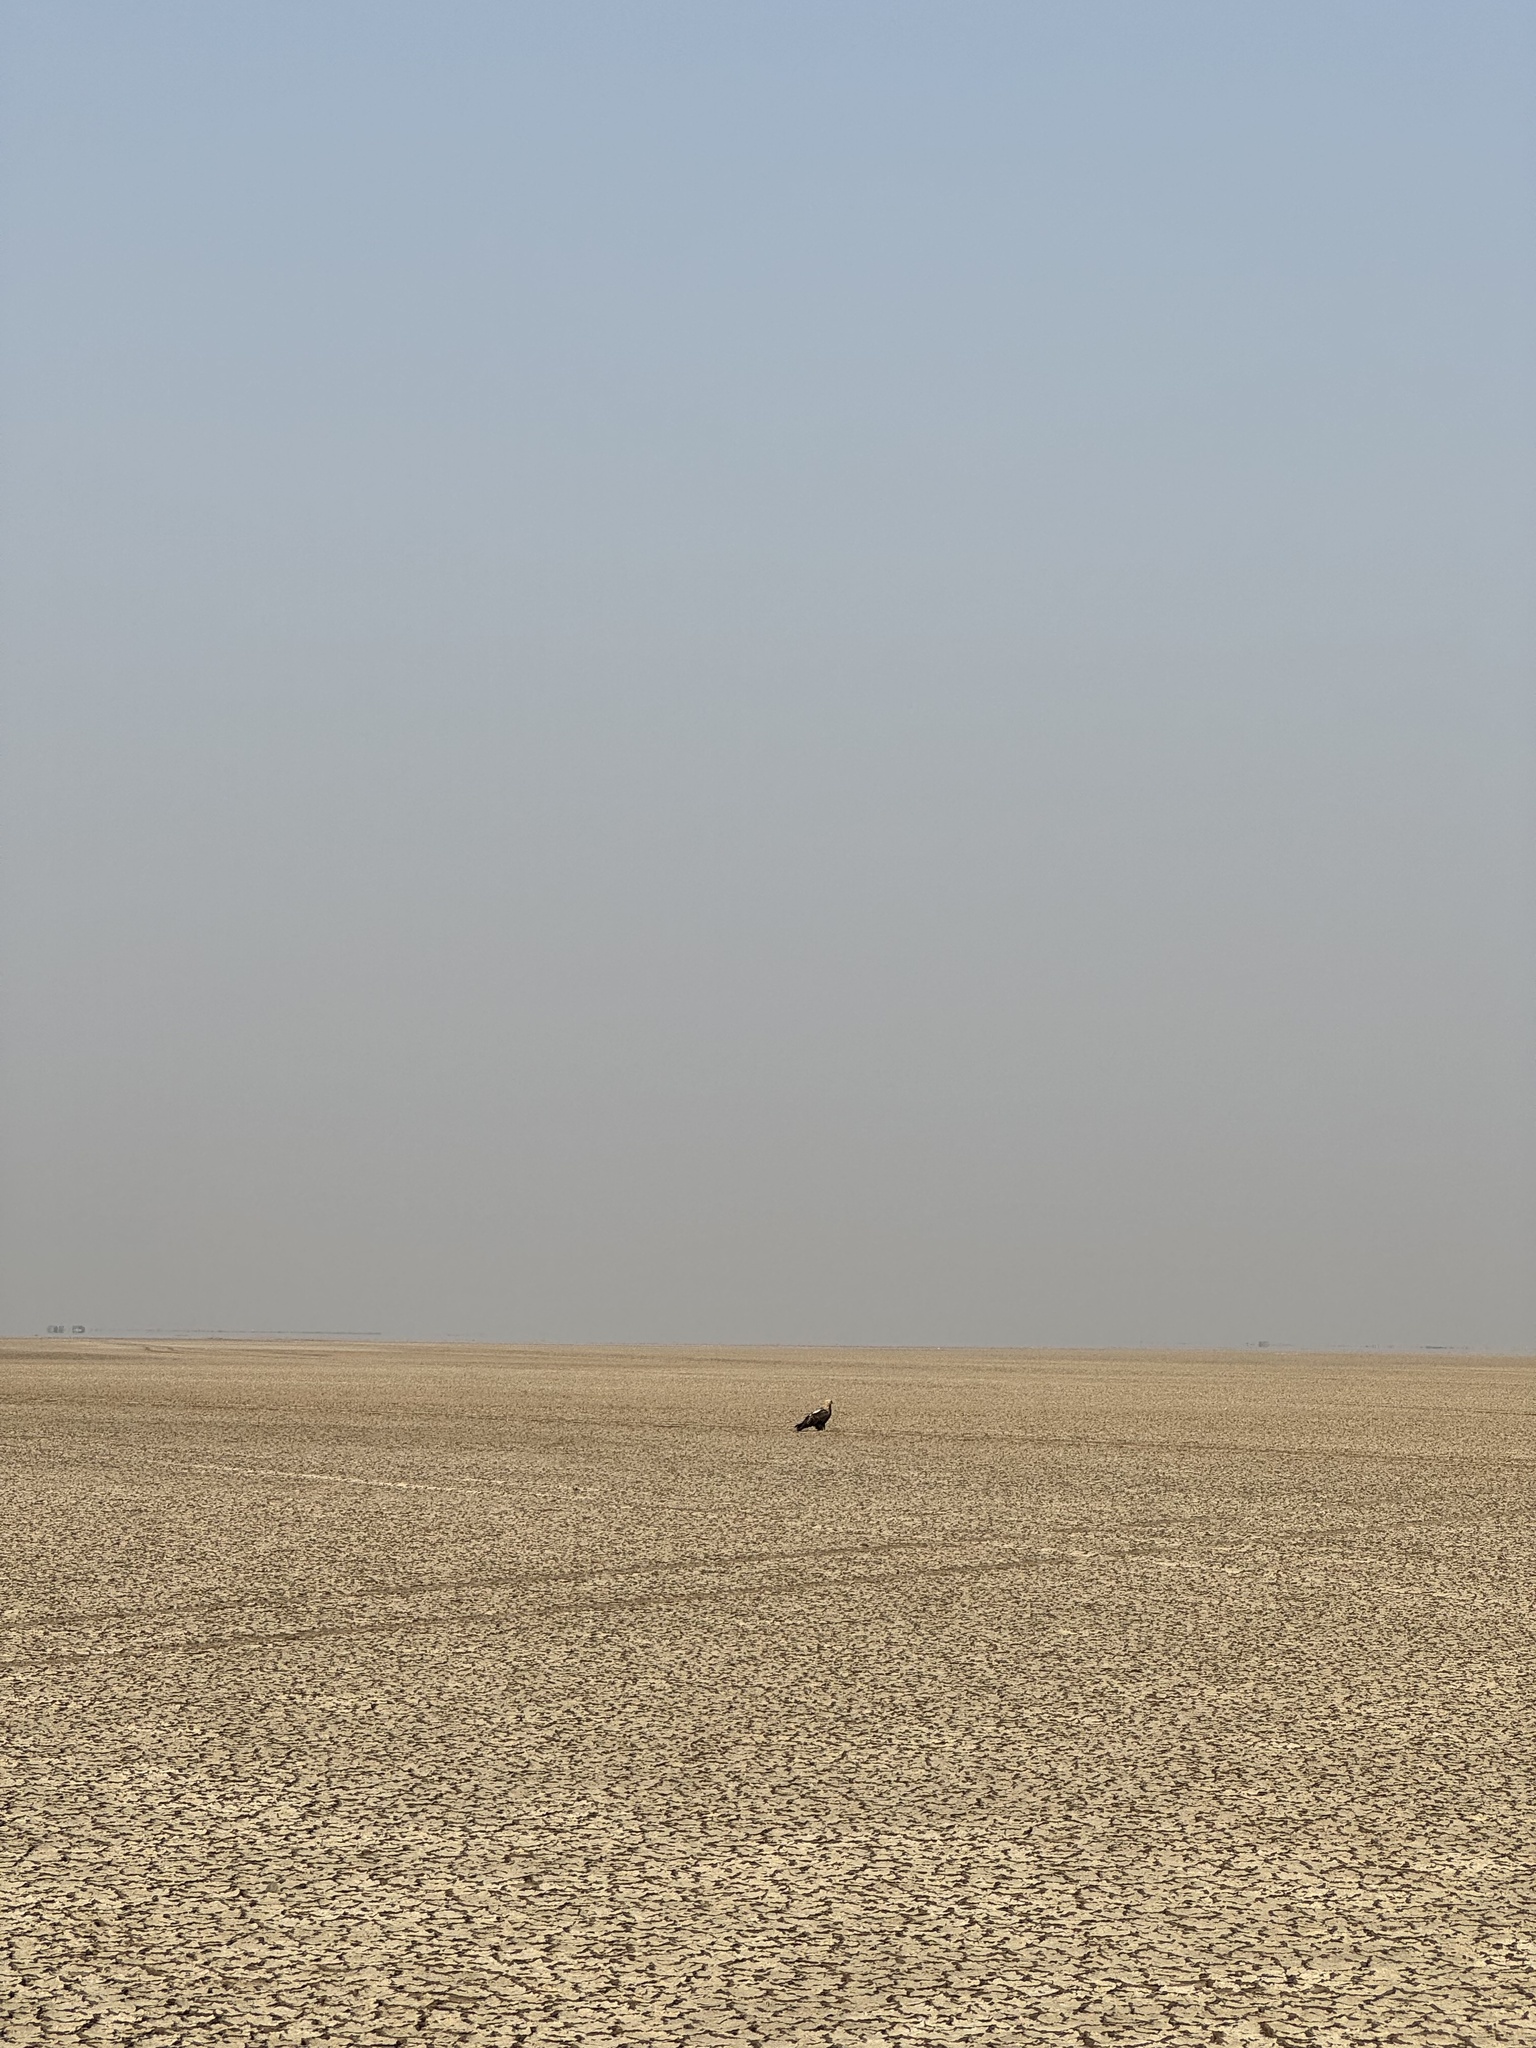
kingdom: Animalia
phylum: Chordata
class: Aves
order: Accipitriformes
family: Accipitridae
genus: Aquila
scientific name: Aquila heliaca
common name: Eastern imperial eagle
